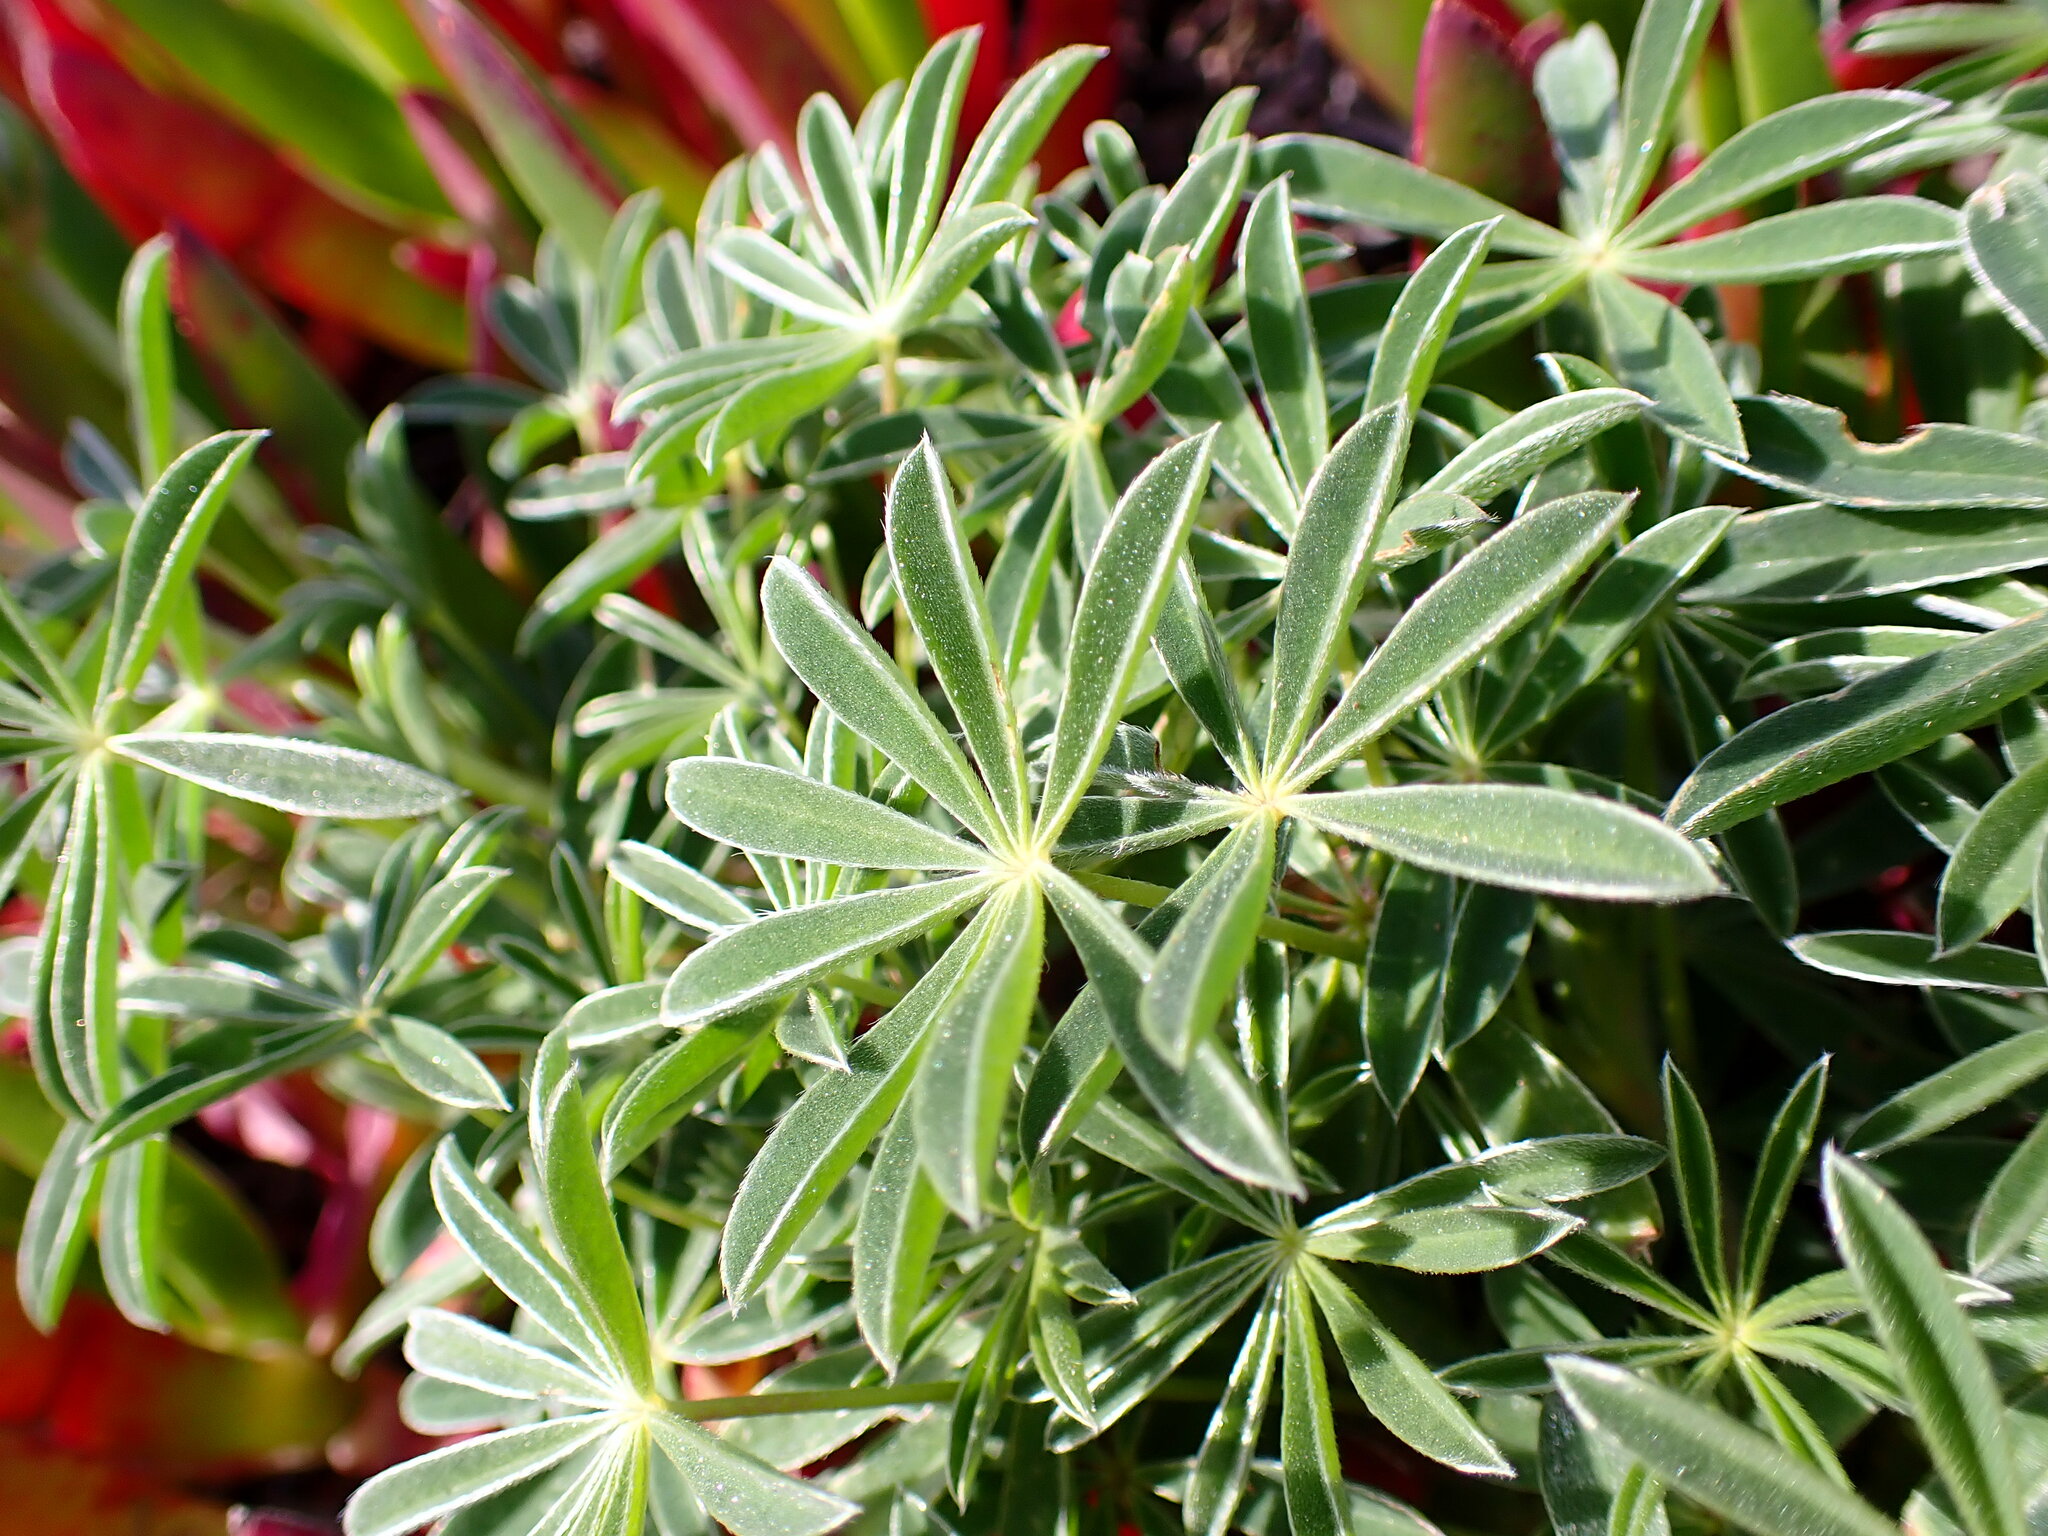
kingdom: Plantae
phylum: Tracheophyta
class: Magnoliopsida
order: Fabales
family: Fabaceae
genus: Lupinus
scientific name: Lupinus variicolor
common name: Lindley's varied lupine
